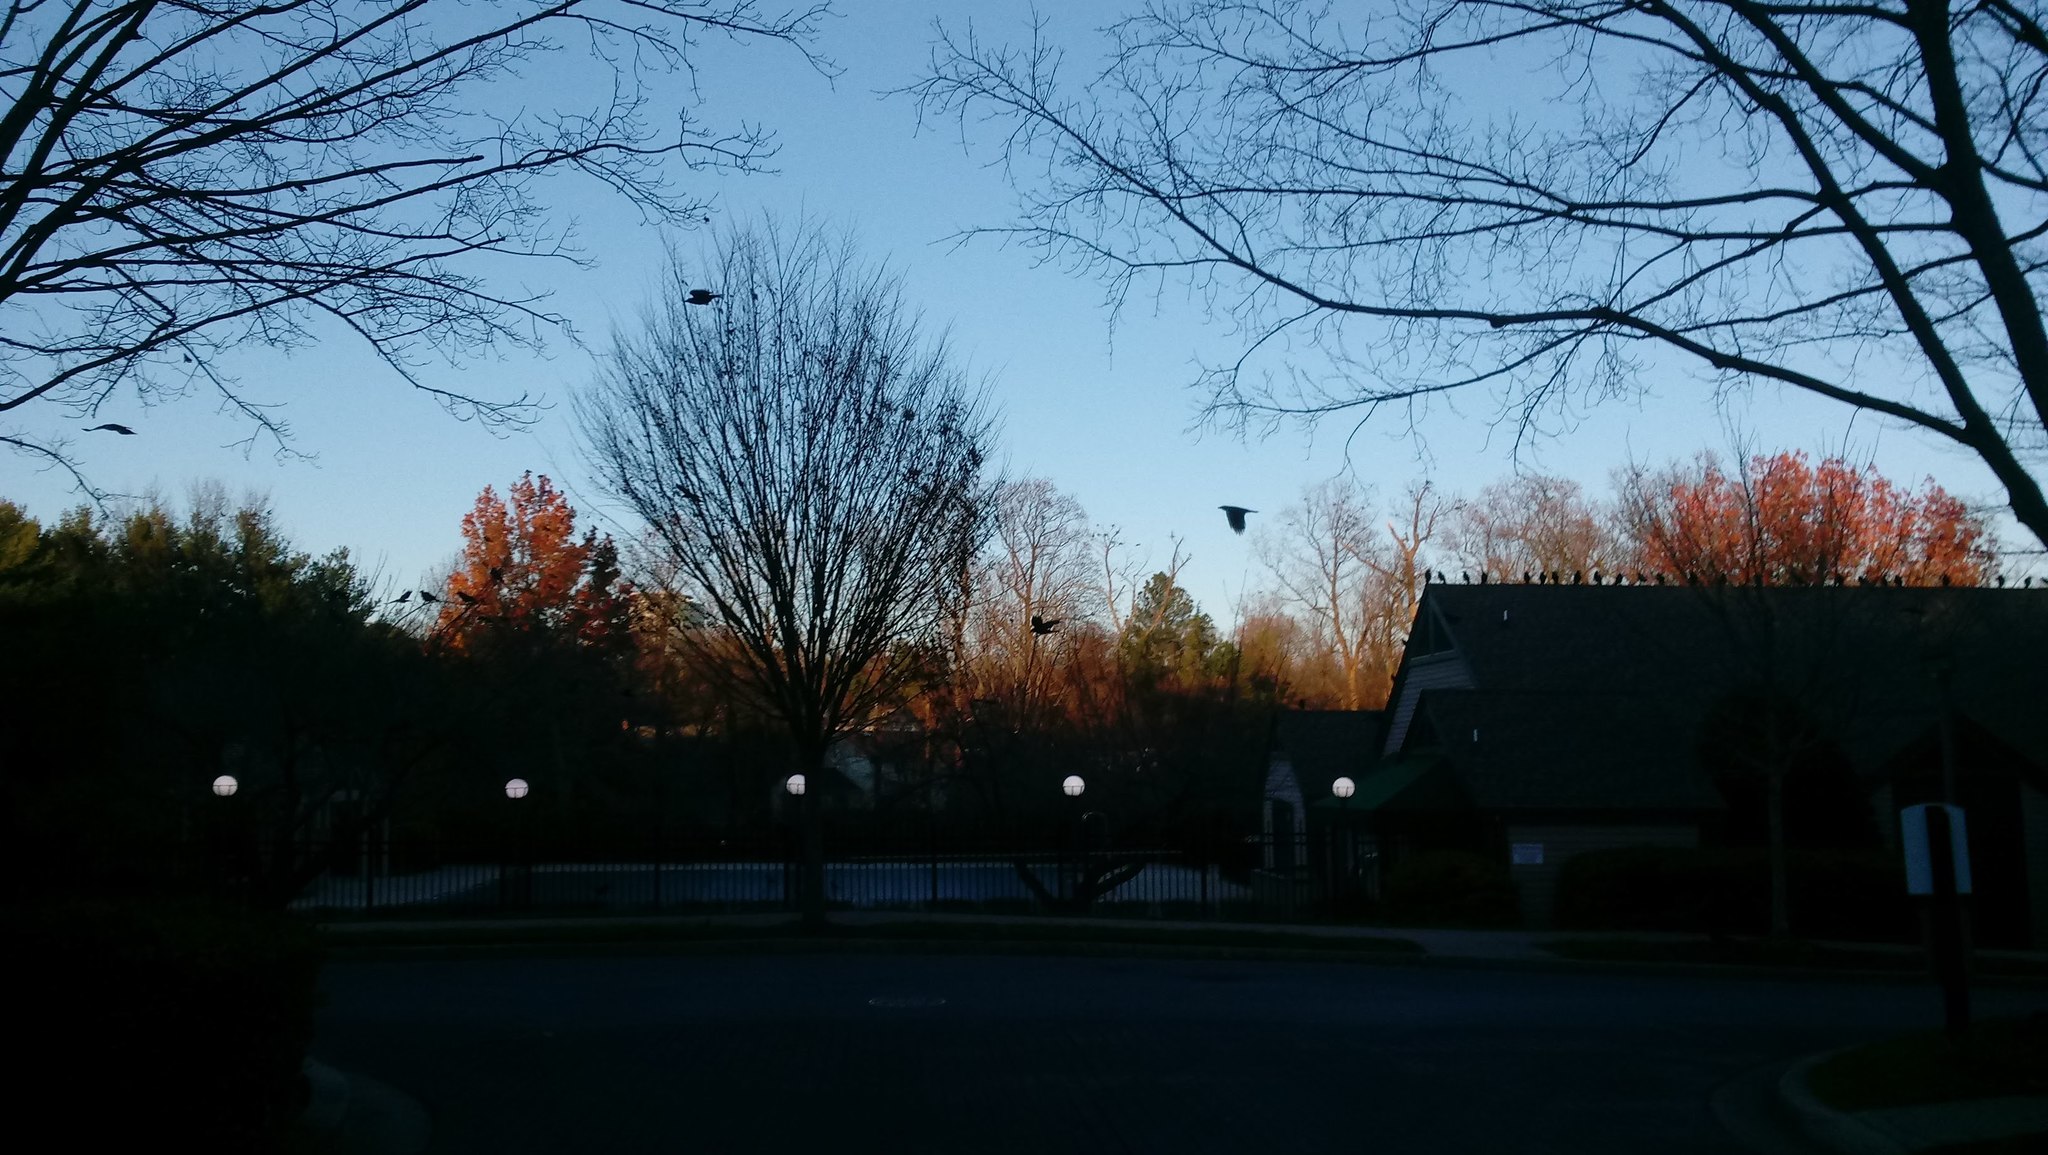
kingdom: Animalia
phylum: Chordata
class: Aves
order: Passeriformes
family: Corvidae
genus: Corvus
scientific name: Corvus brachyrhynchos
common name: American crow
